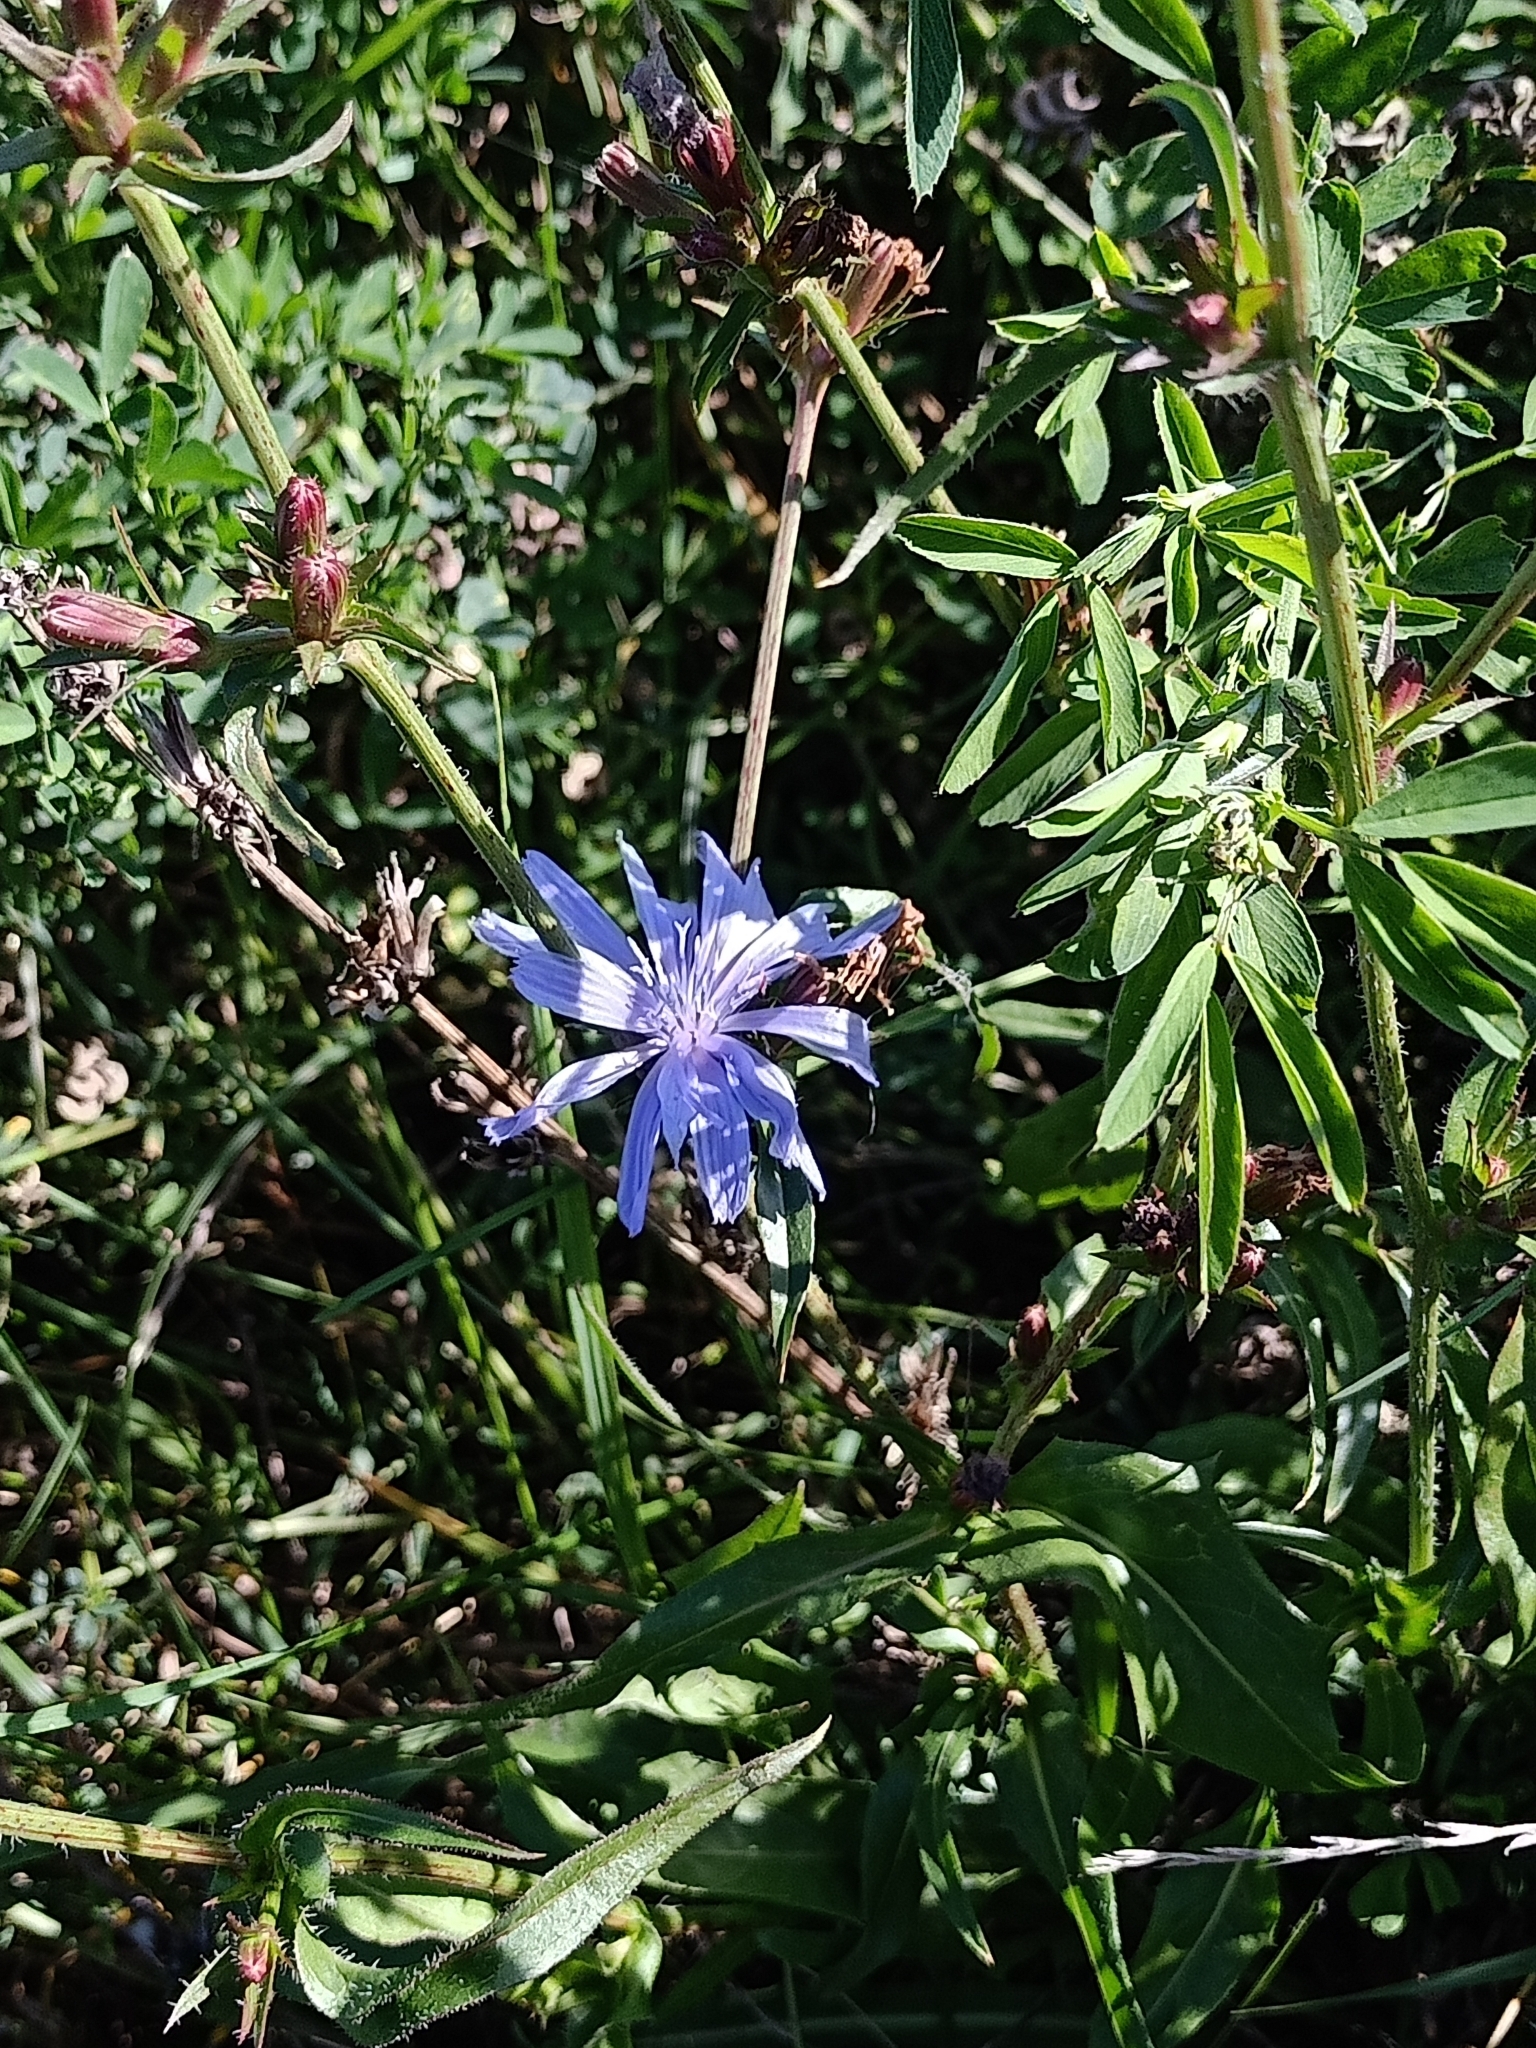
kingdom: Plantae
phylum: Tracheophyta
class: Magnoliopsida
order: Asterales
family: Asteraceae
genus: Cichorium
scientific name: Cichorium intybus
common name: Chicory
